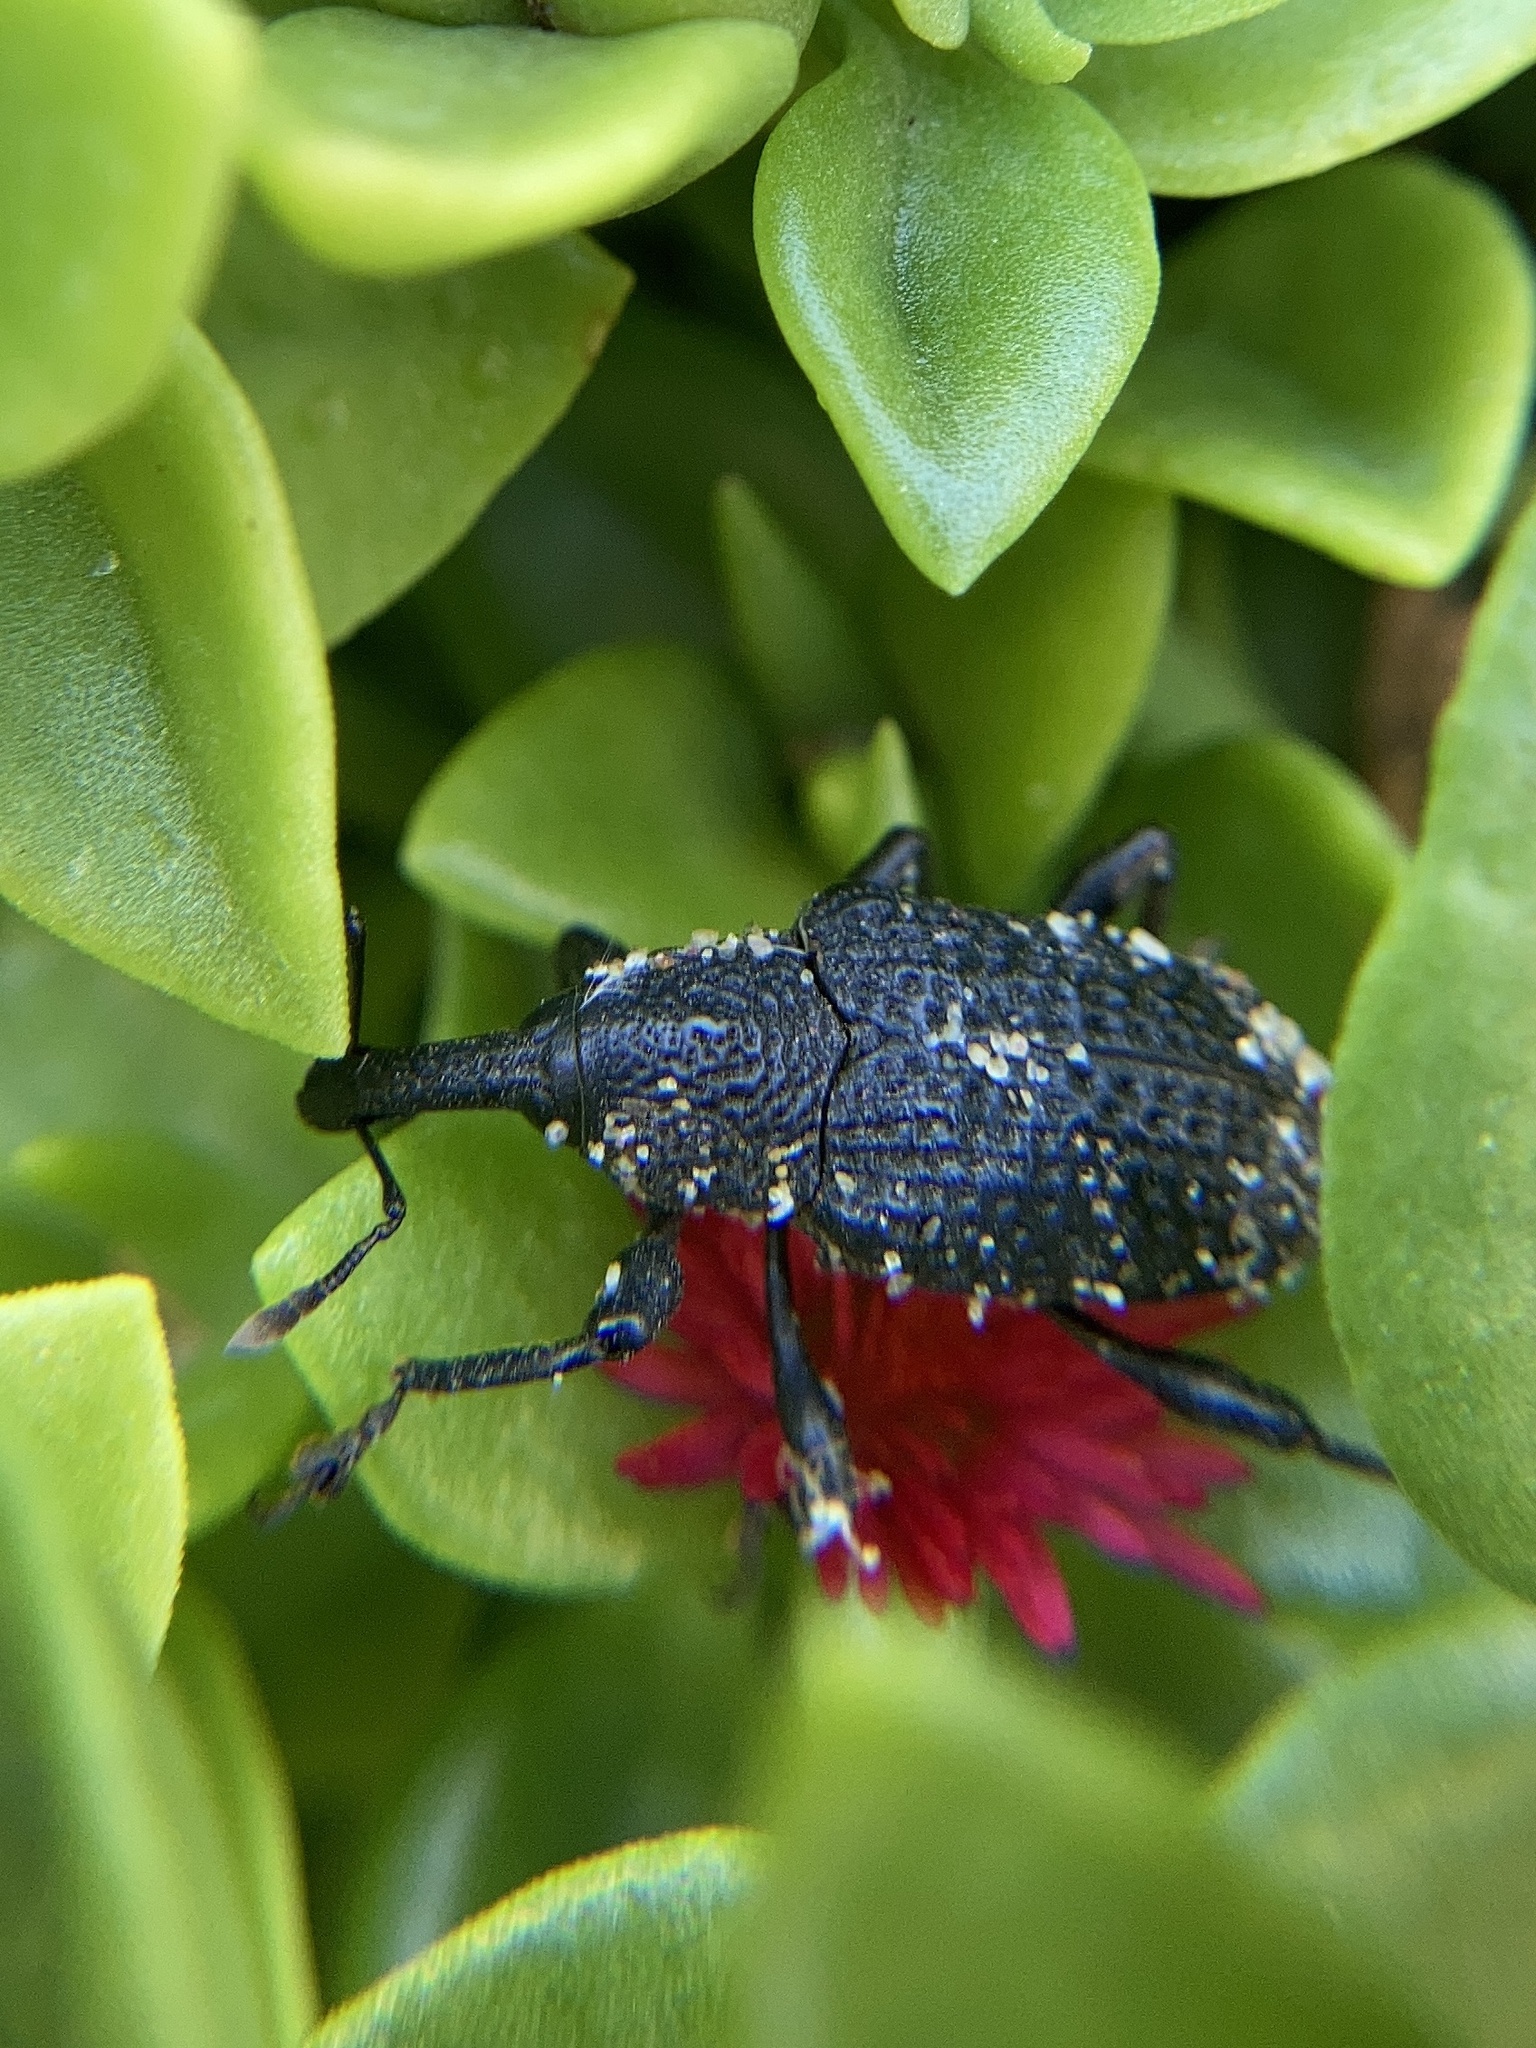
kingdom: Animalia
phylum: Arthropoda
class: Insecta
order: Coleoptera
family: Curculionidae
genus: Aclees
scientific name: Aclees taiwanensis
